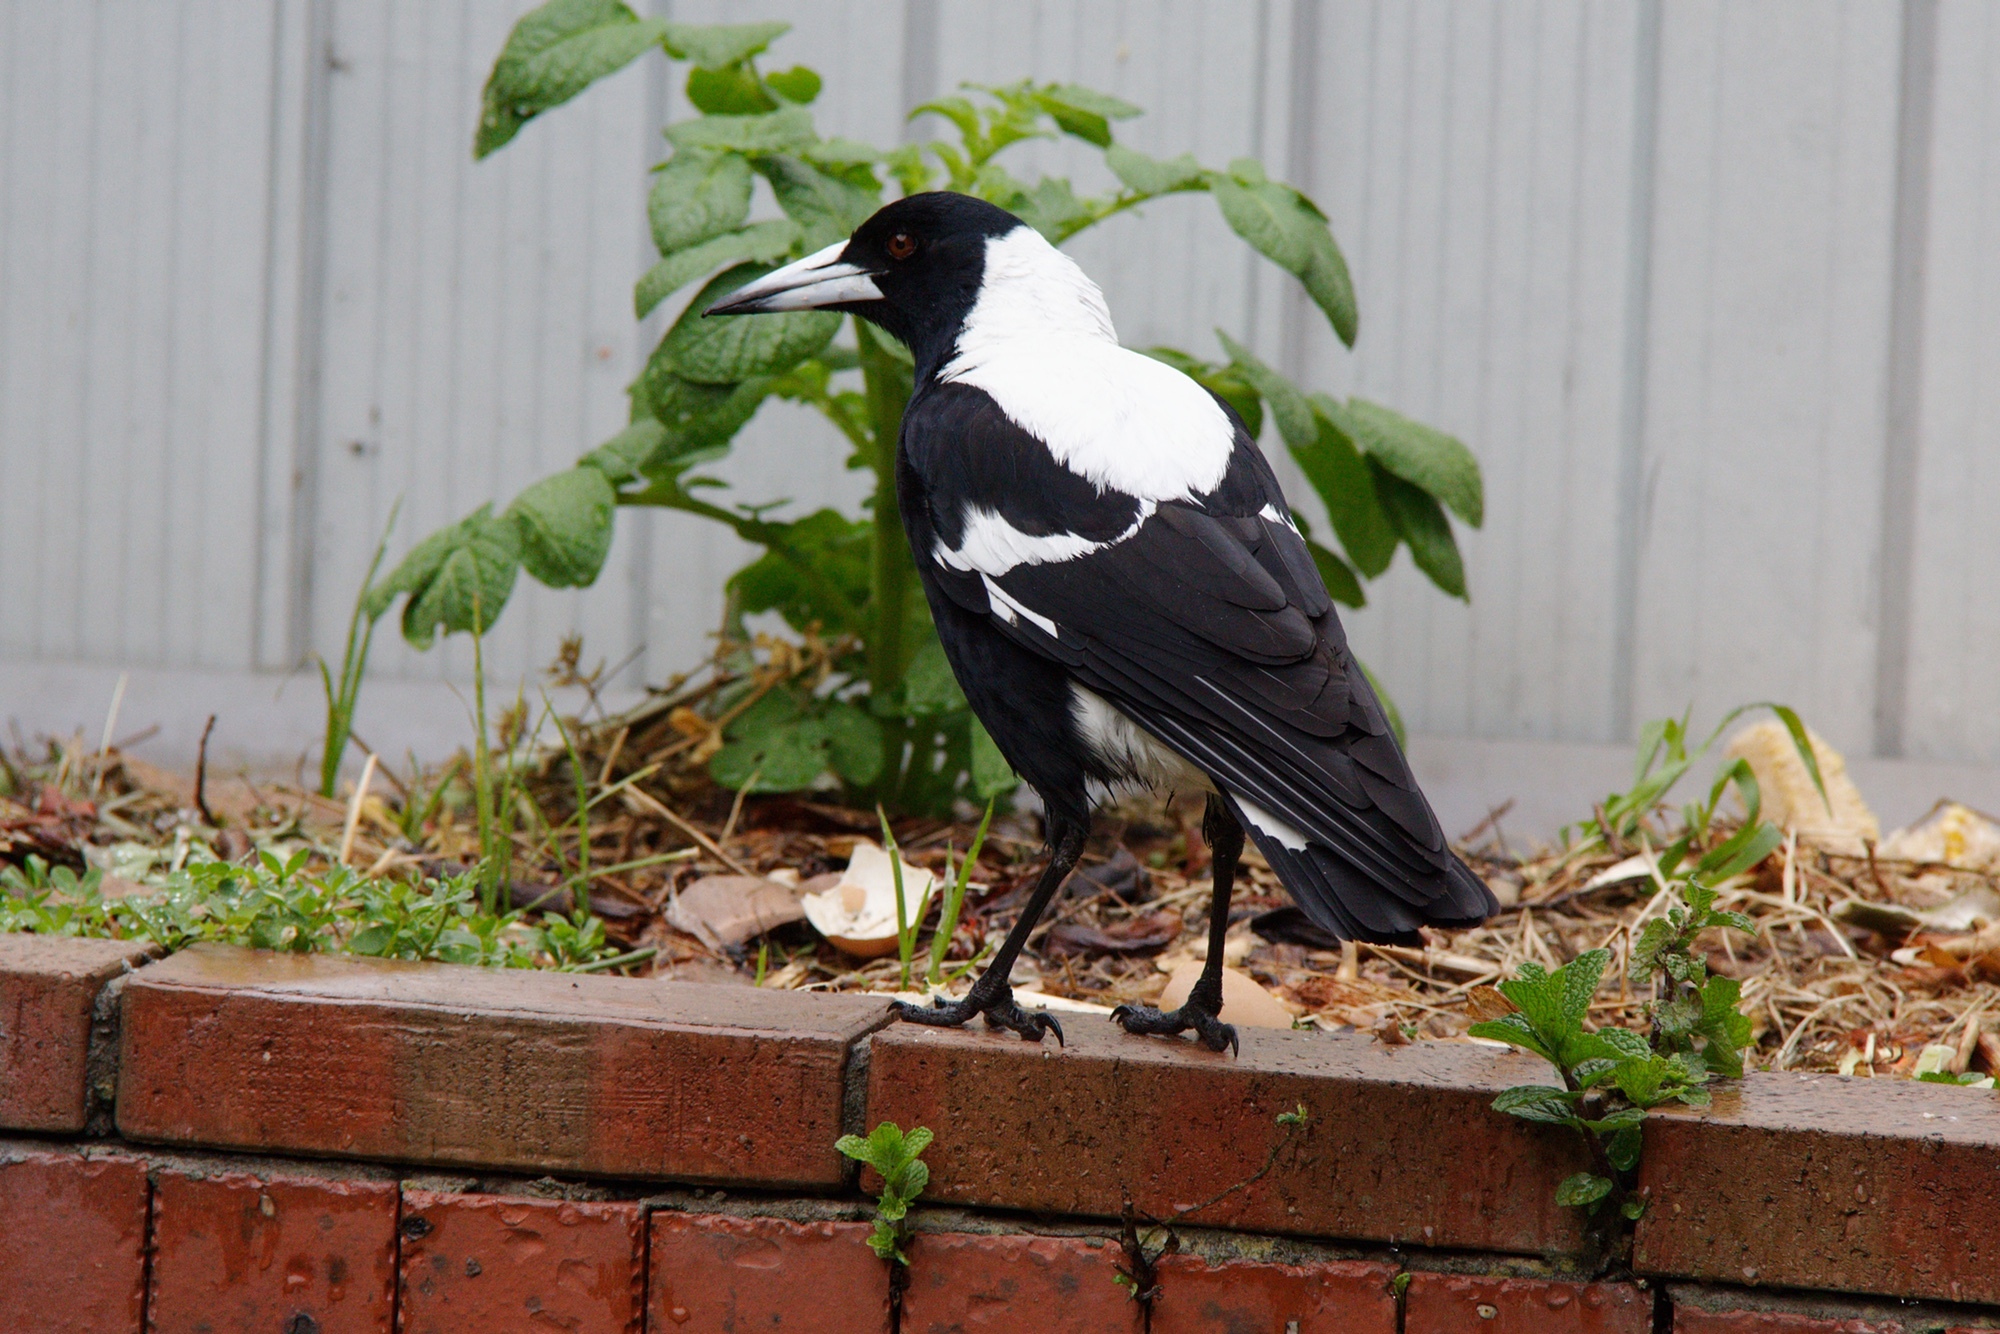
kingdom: Animalia
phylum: Chordata
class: Aves
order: Passeriformes
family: Cracticidae
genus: Gymnorhina
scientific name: Gymnorhina tibicen
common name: Australian magpie
